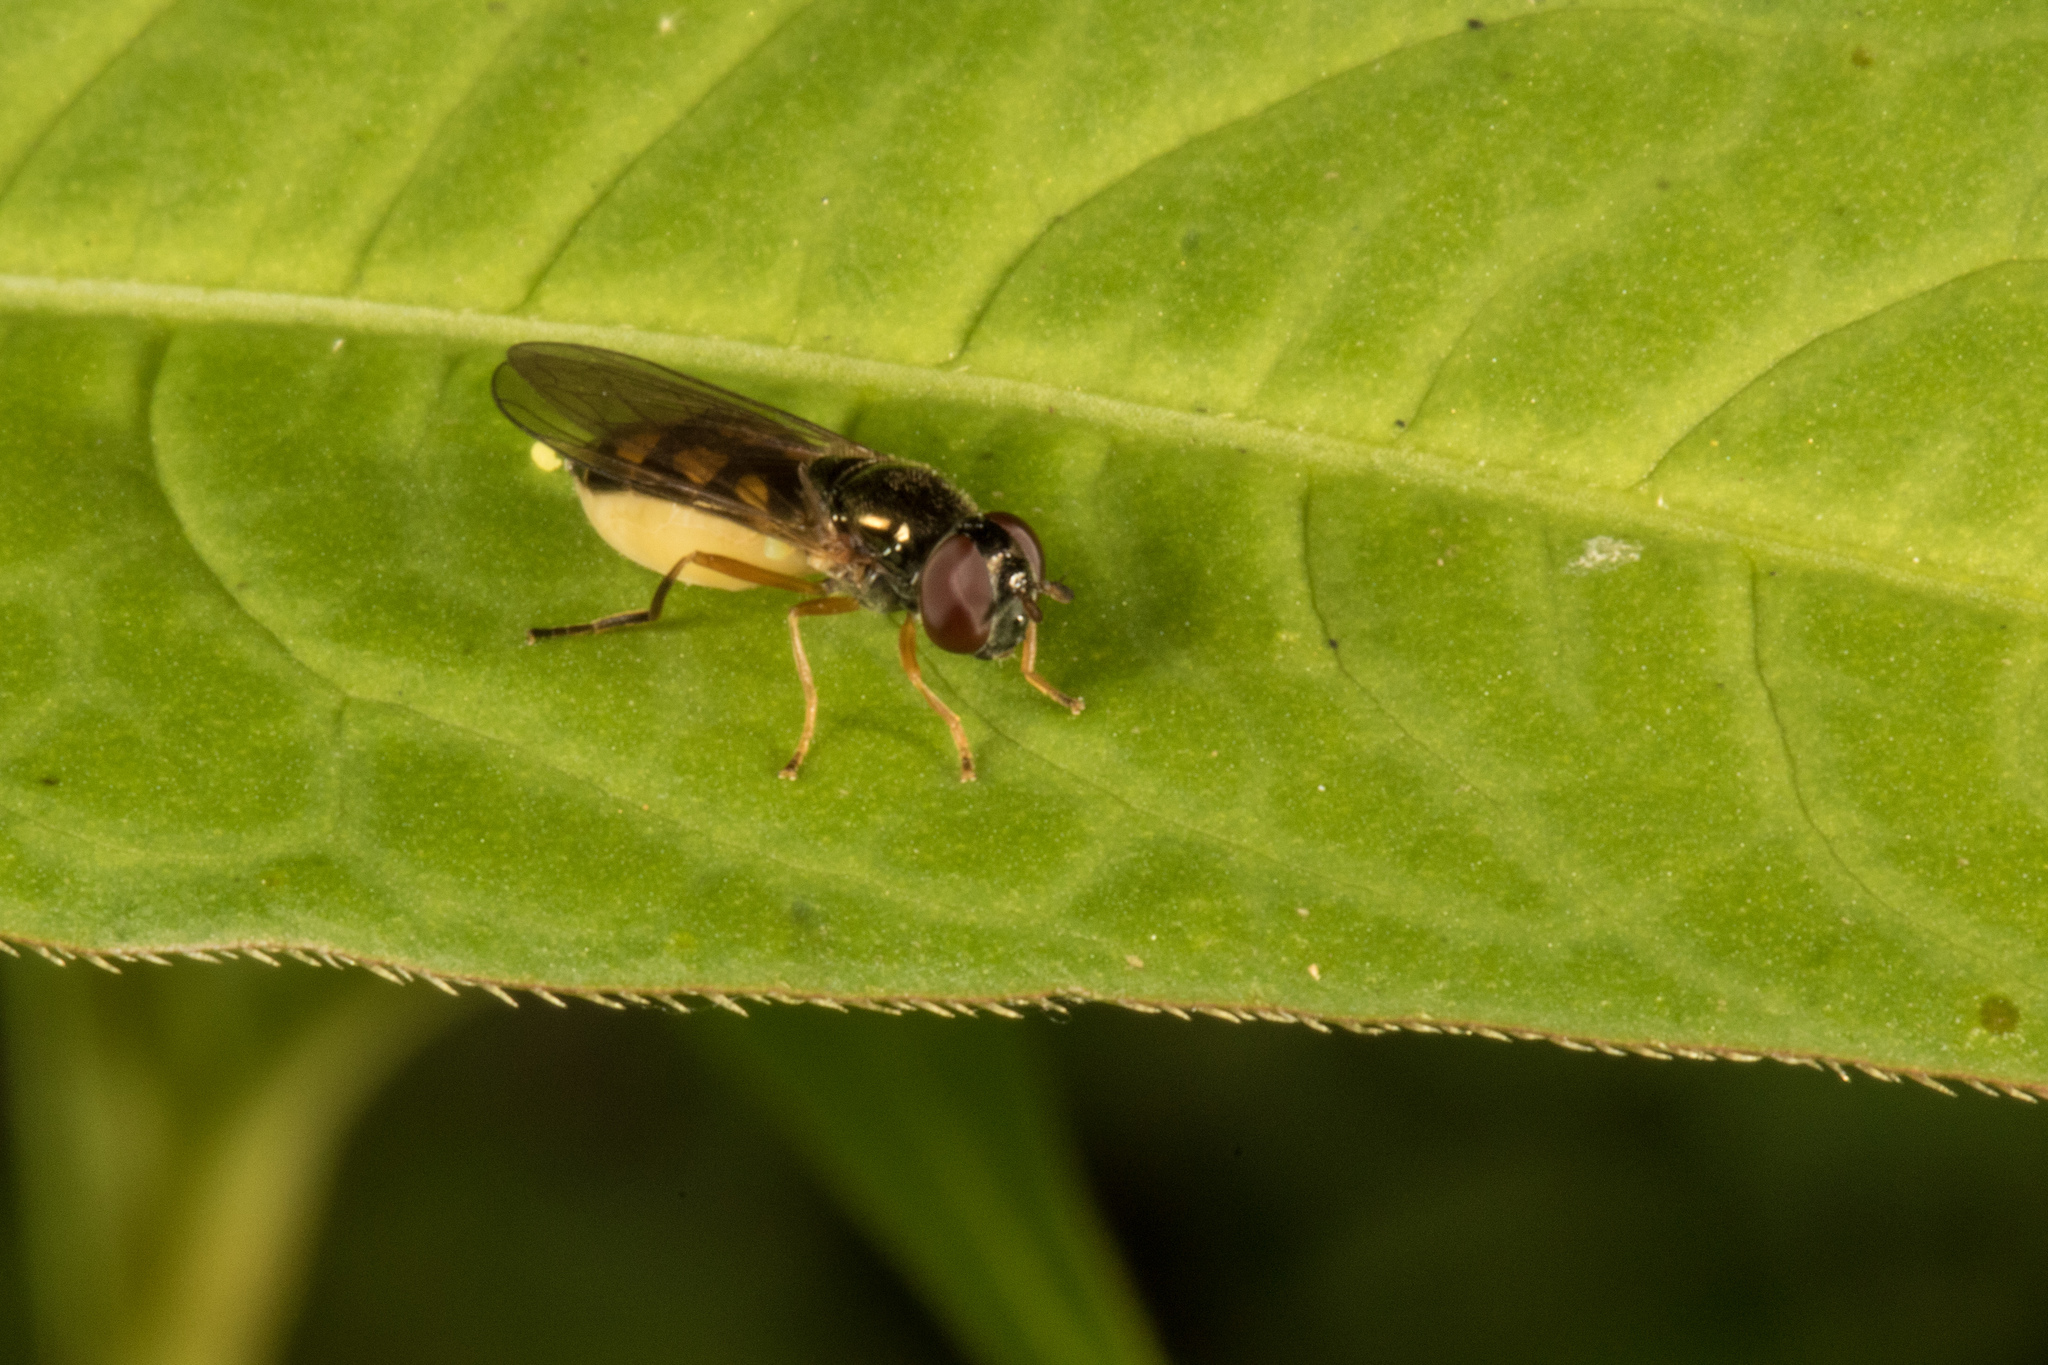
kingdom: Animalia
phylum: Arthropoda
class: Insecta
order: Diptera
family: Syrphidae
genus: Melanostoma
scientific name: Melanostoma fasciatum
